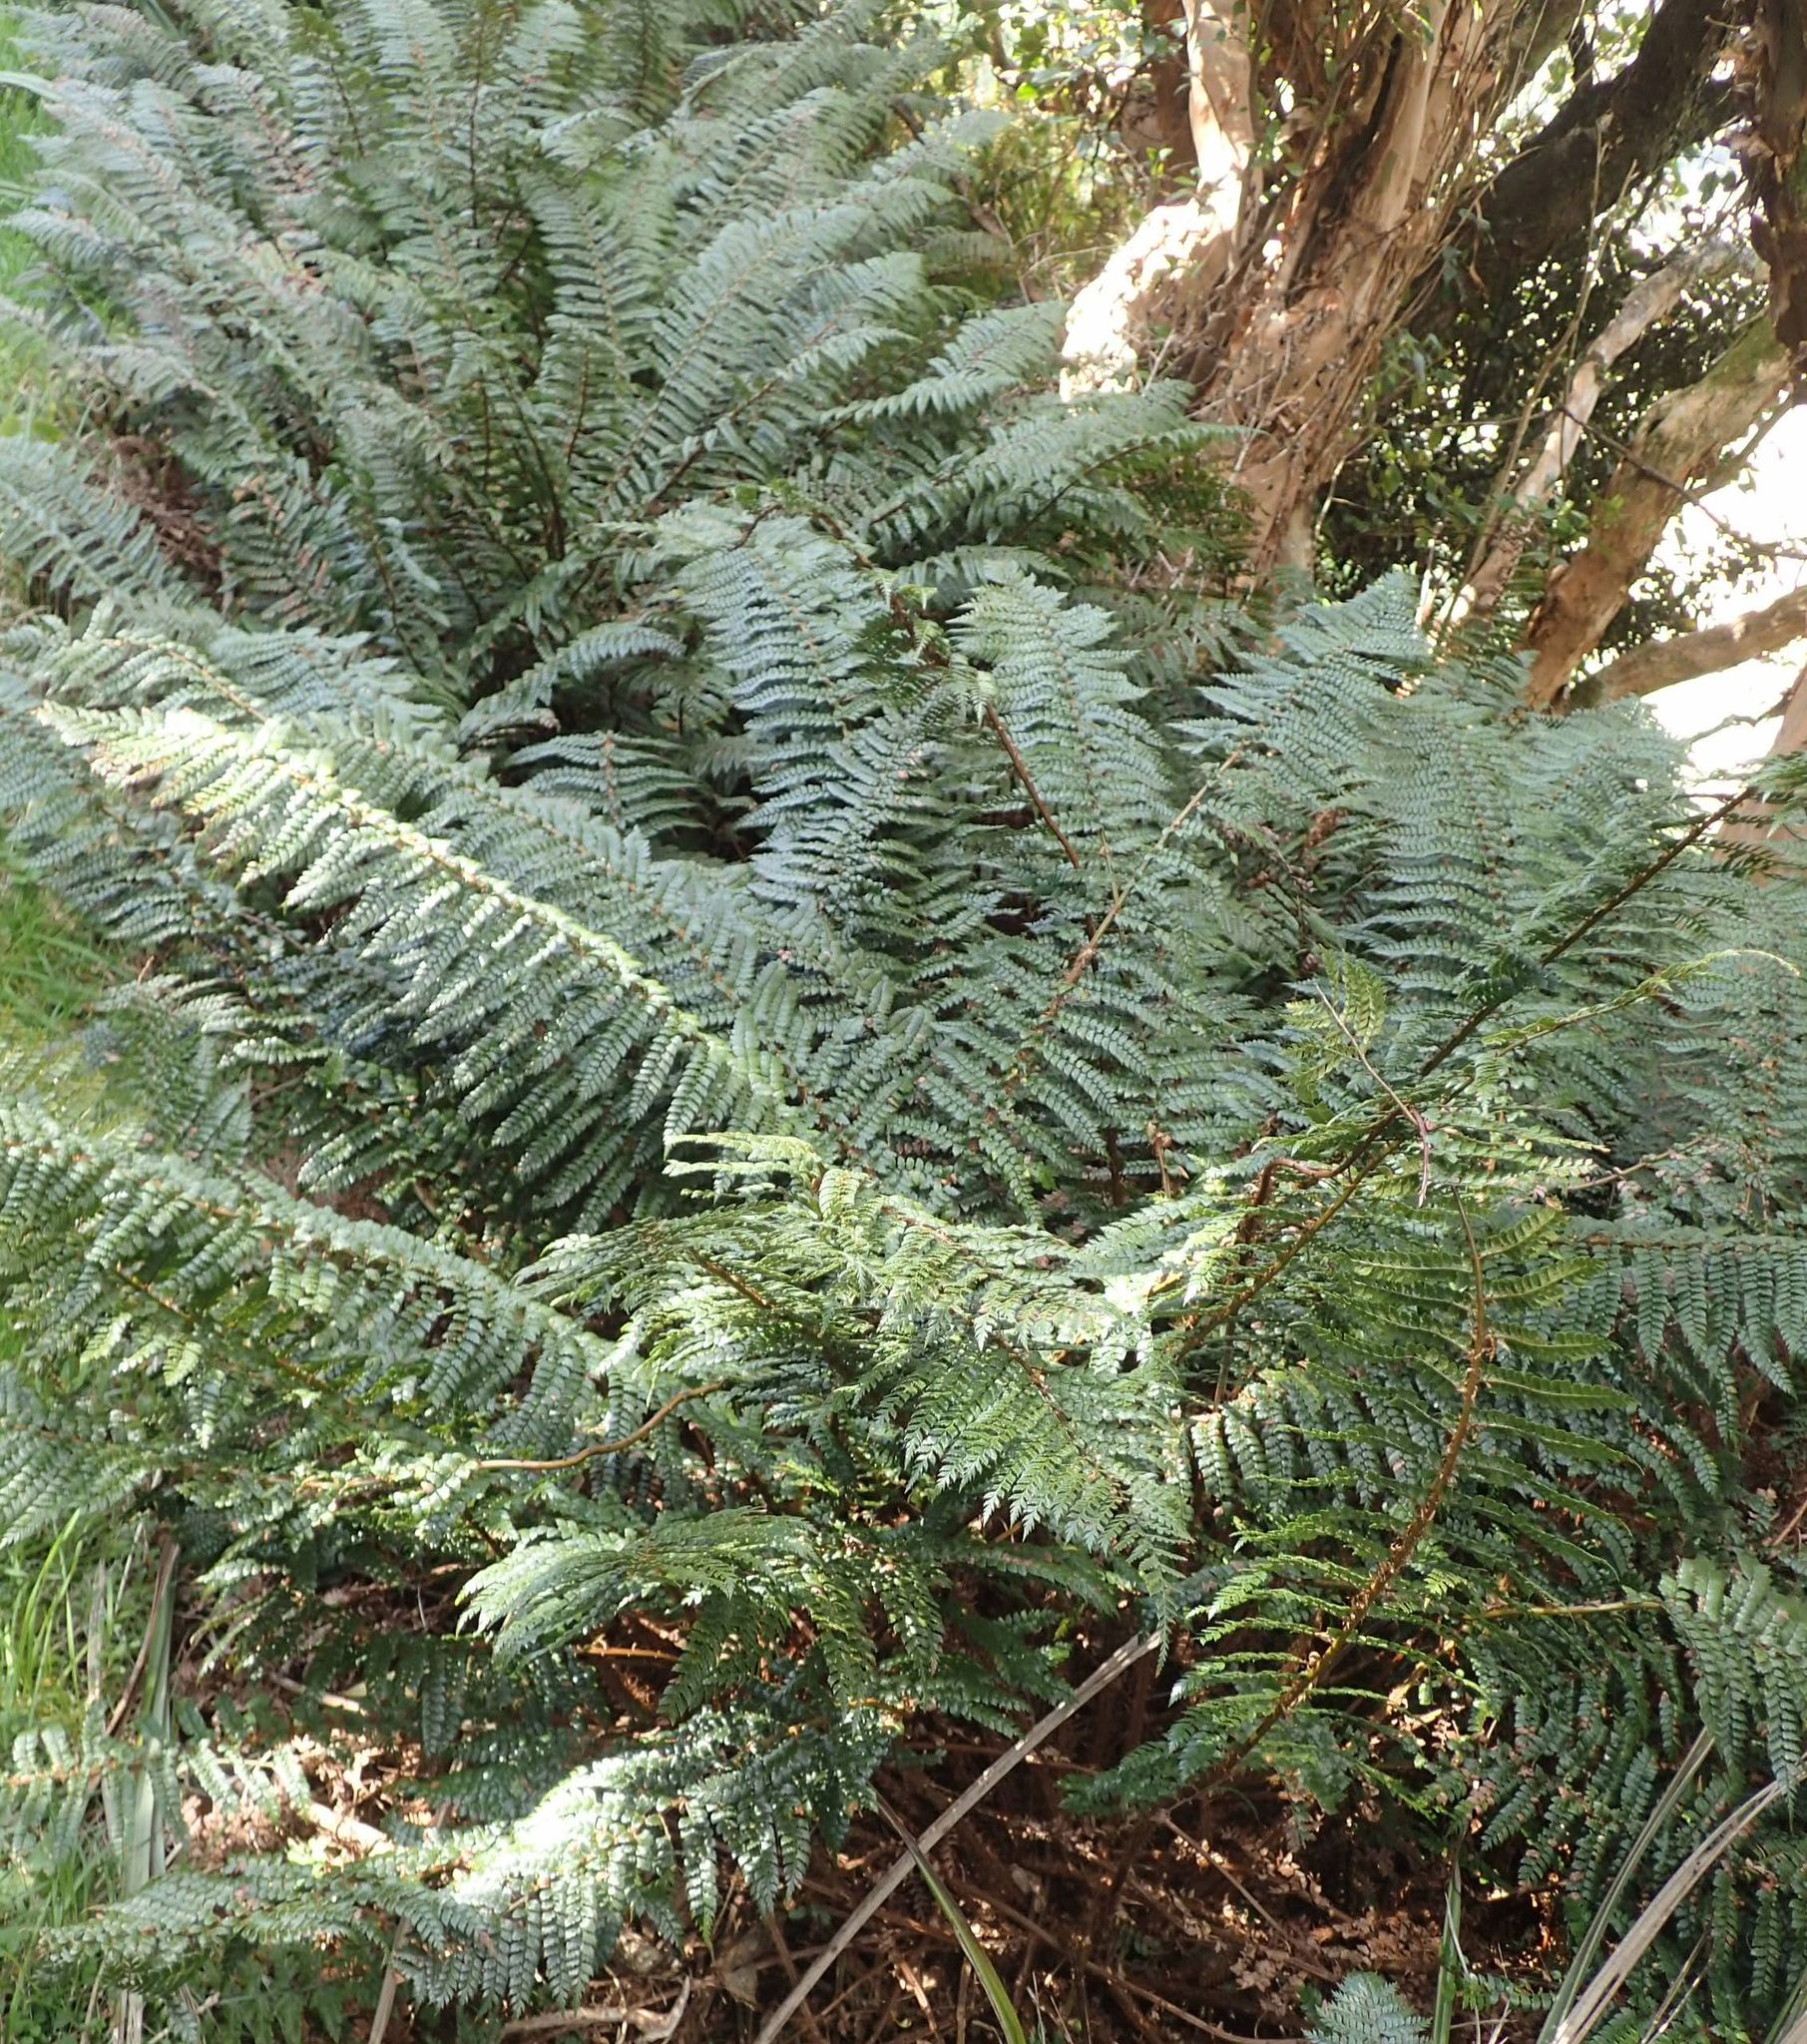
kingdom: Plantae
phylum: Tracheophyta
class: Polypodiopsida
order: Polypodiales
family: Dryopteridaceae
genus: Polystichum
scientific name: Polystichum vestitum
